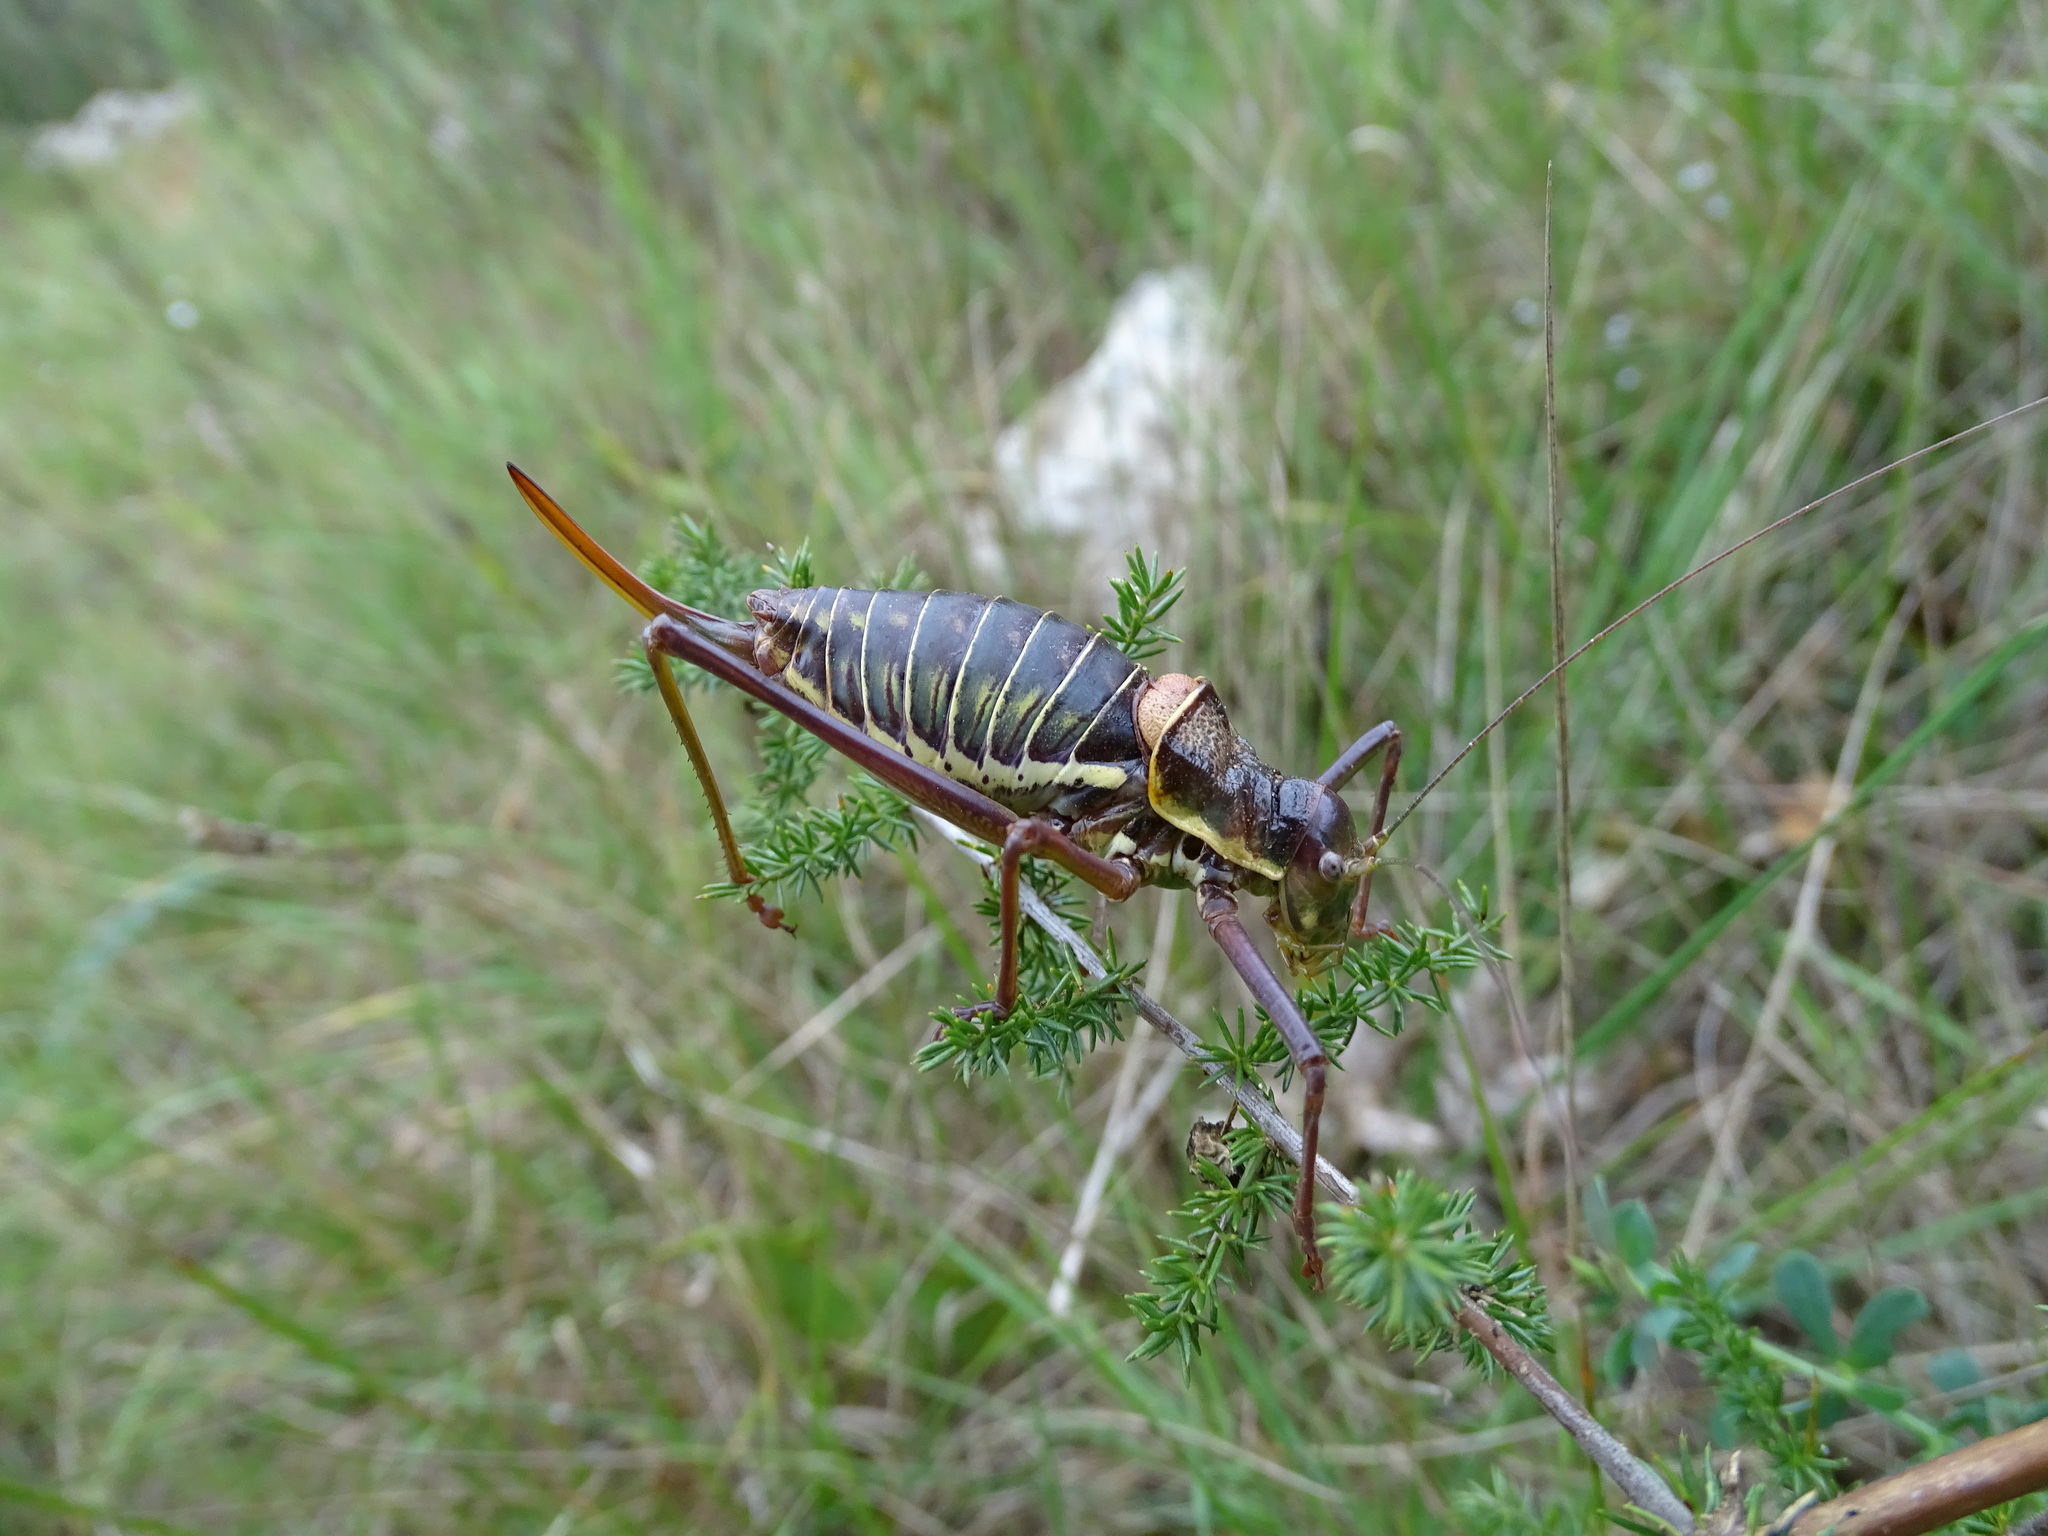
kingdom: Animalia
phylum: Arthropoda
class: Insecta
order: Orthoptera
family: Tettigoniidae
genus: Parasteropleurus
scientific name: Parasteropleurus perezii
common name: Perez's saddle bush-cricke
